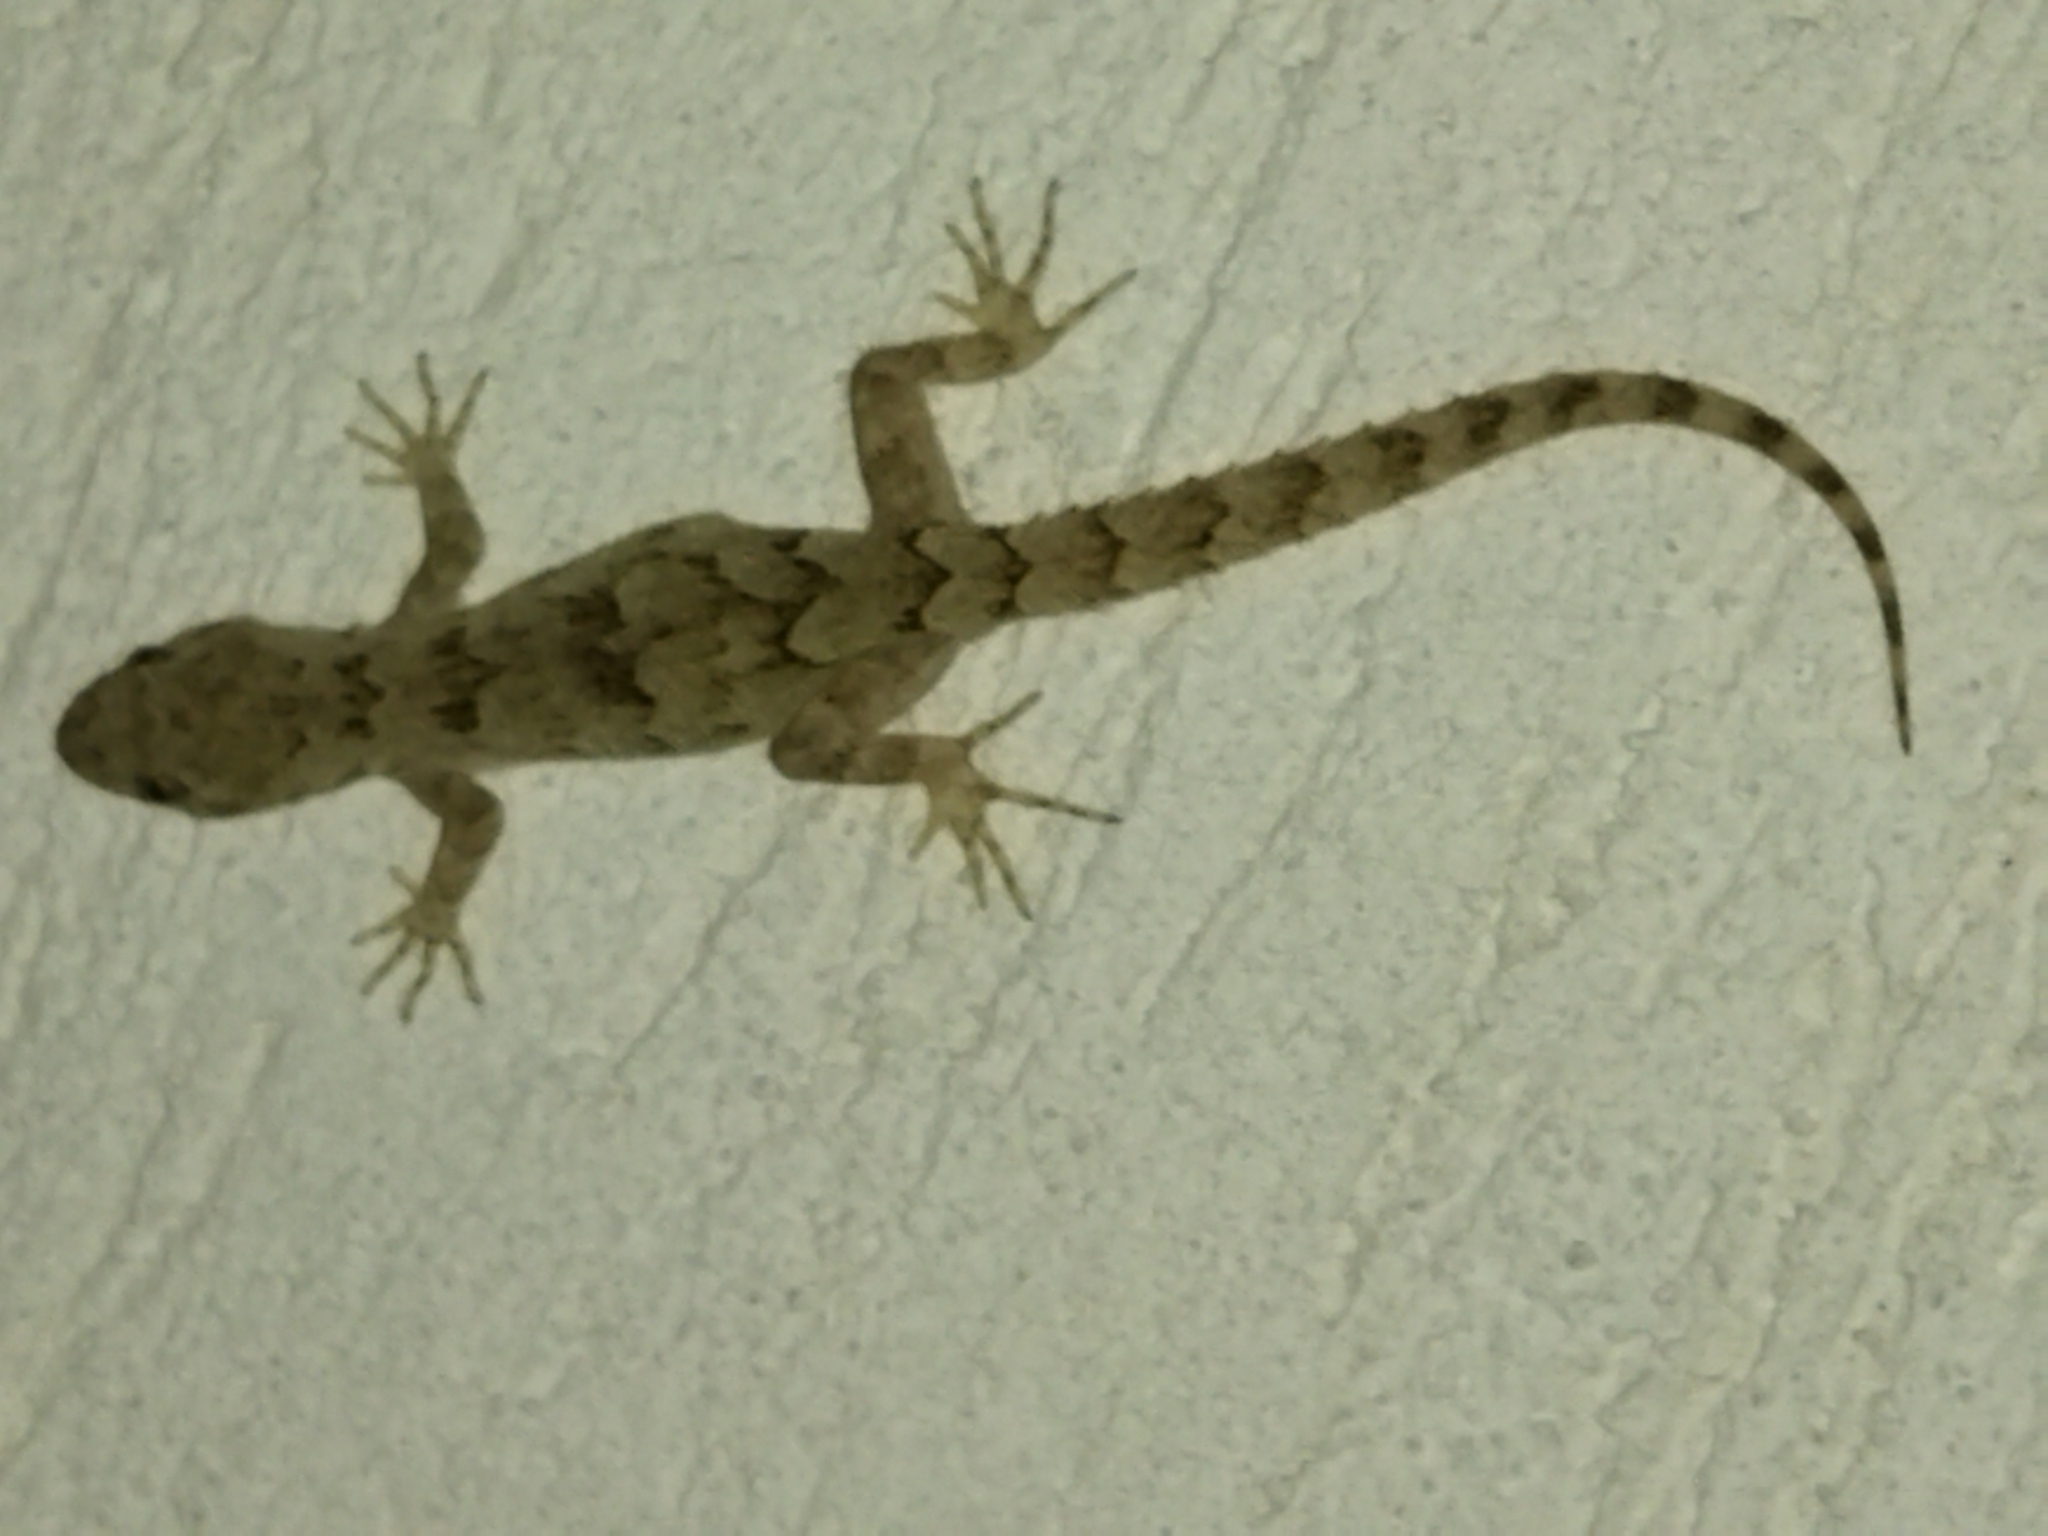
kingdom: Animalia
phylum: Chordata
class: Squamata
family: Gekkonidae
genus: Mediodactylus
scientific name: Mediodactylus kotschyi
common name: Kotschy's gecko
